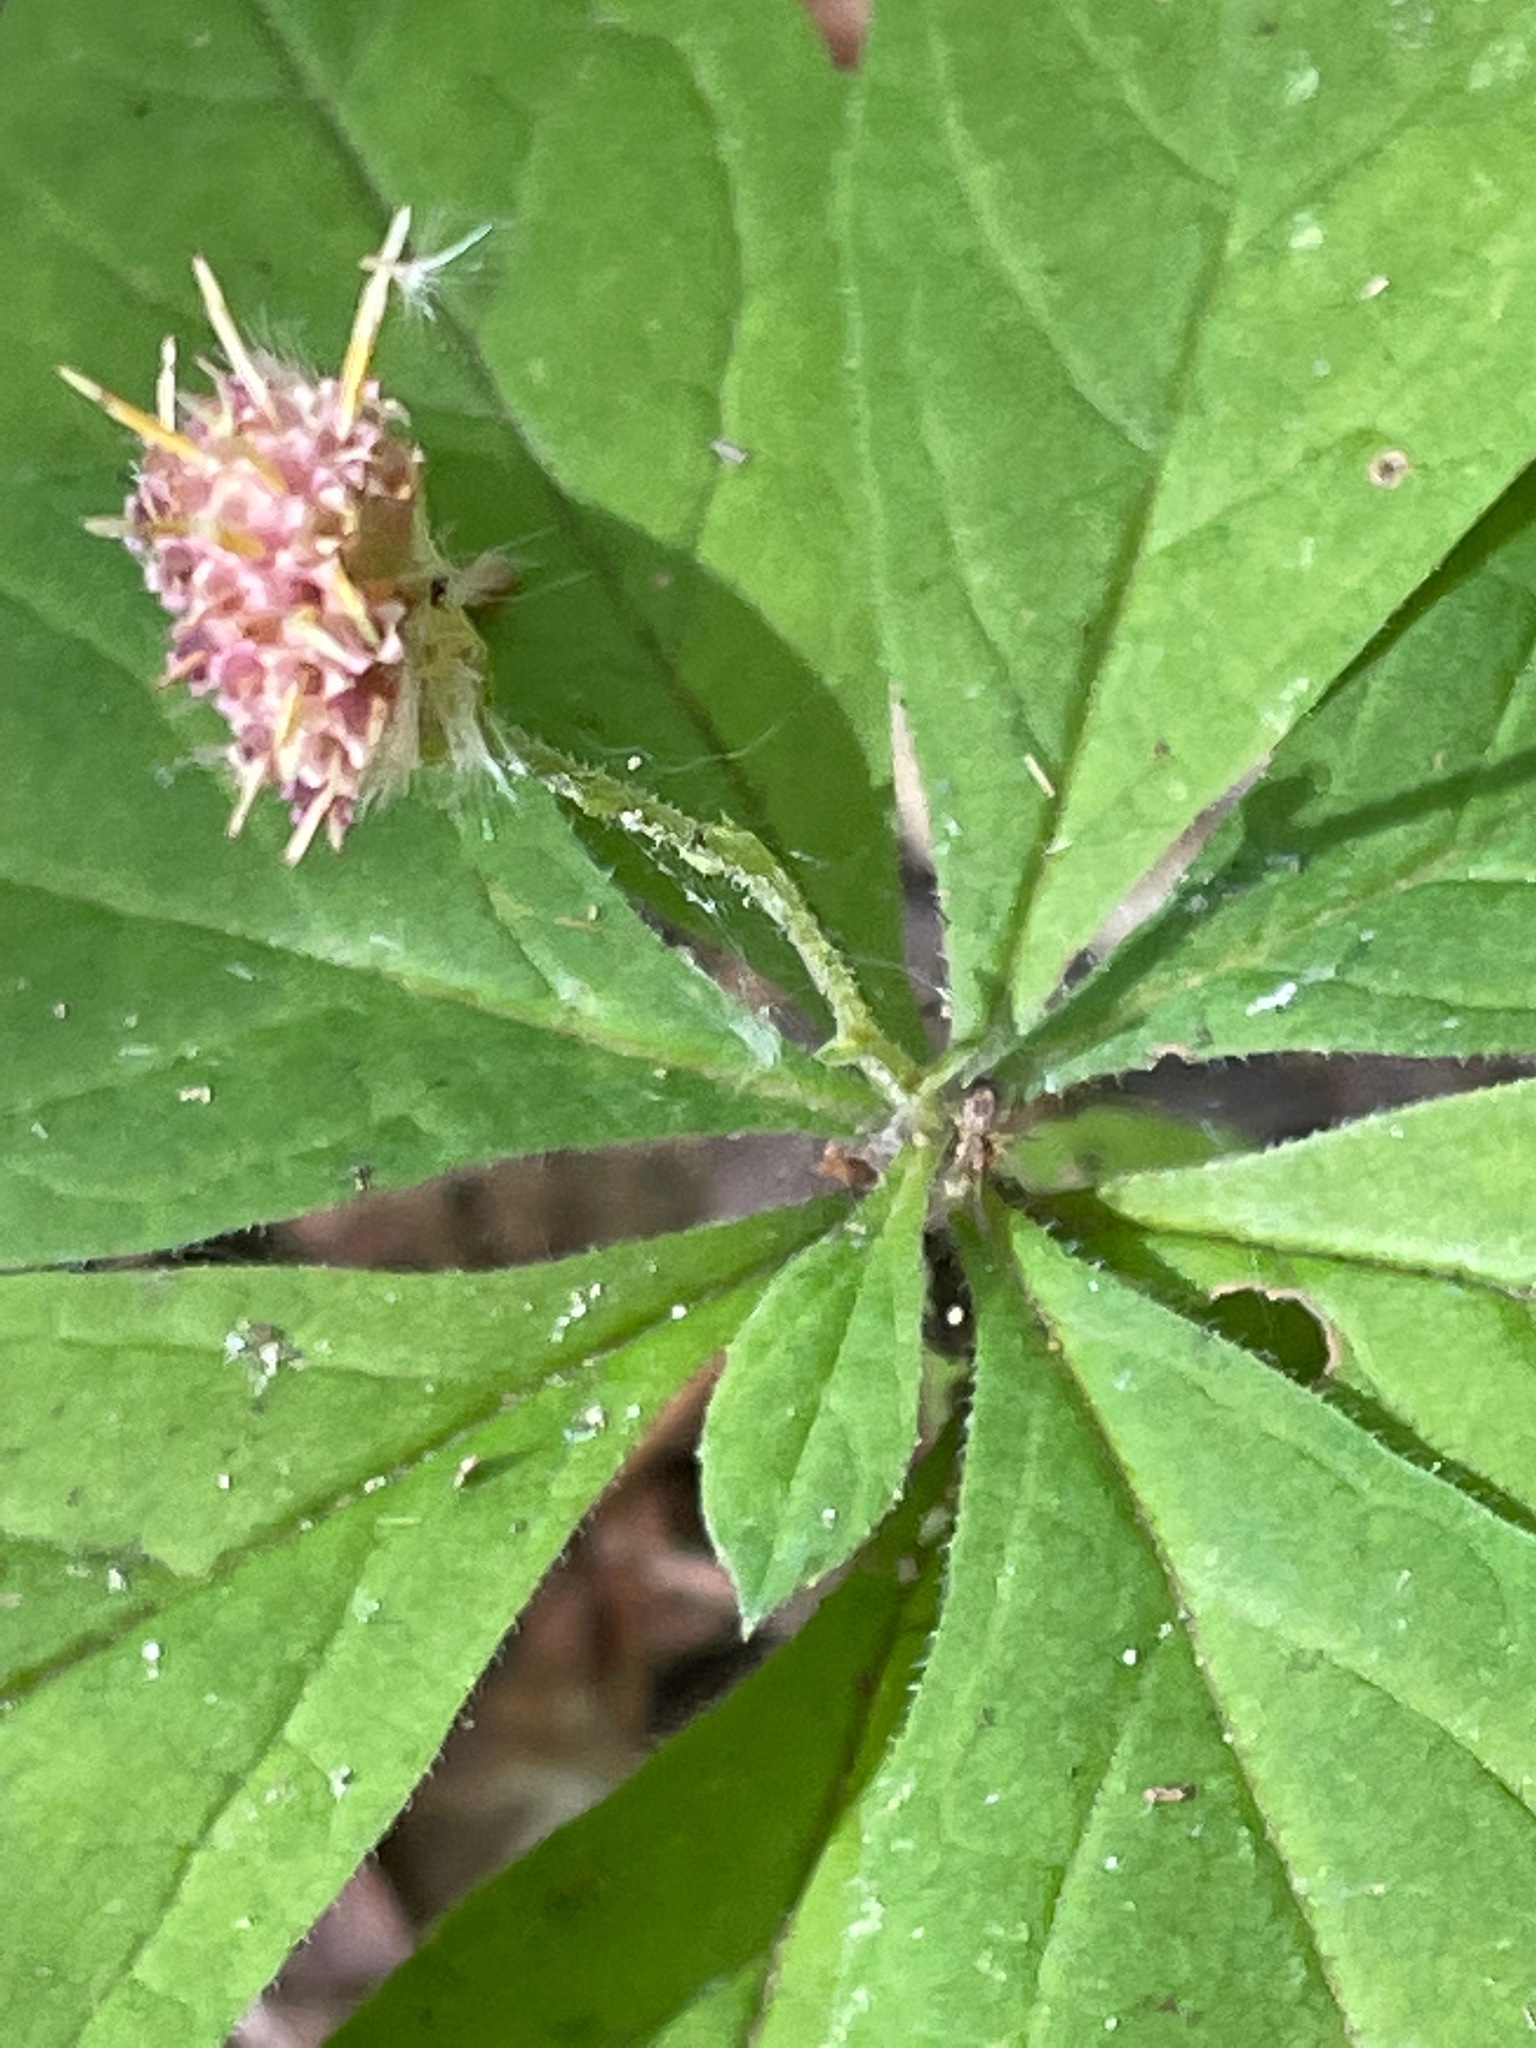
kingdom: Plantae
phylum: Tracheophyta
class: Magnoliopsida
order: Asterales
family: Asteraceae
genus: Oclemena
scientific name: Oclemena acuminata
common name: Mountain aster
